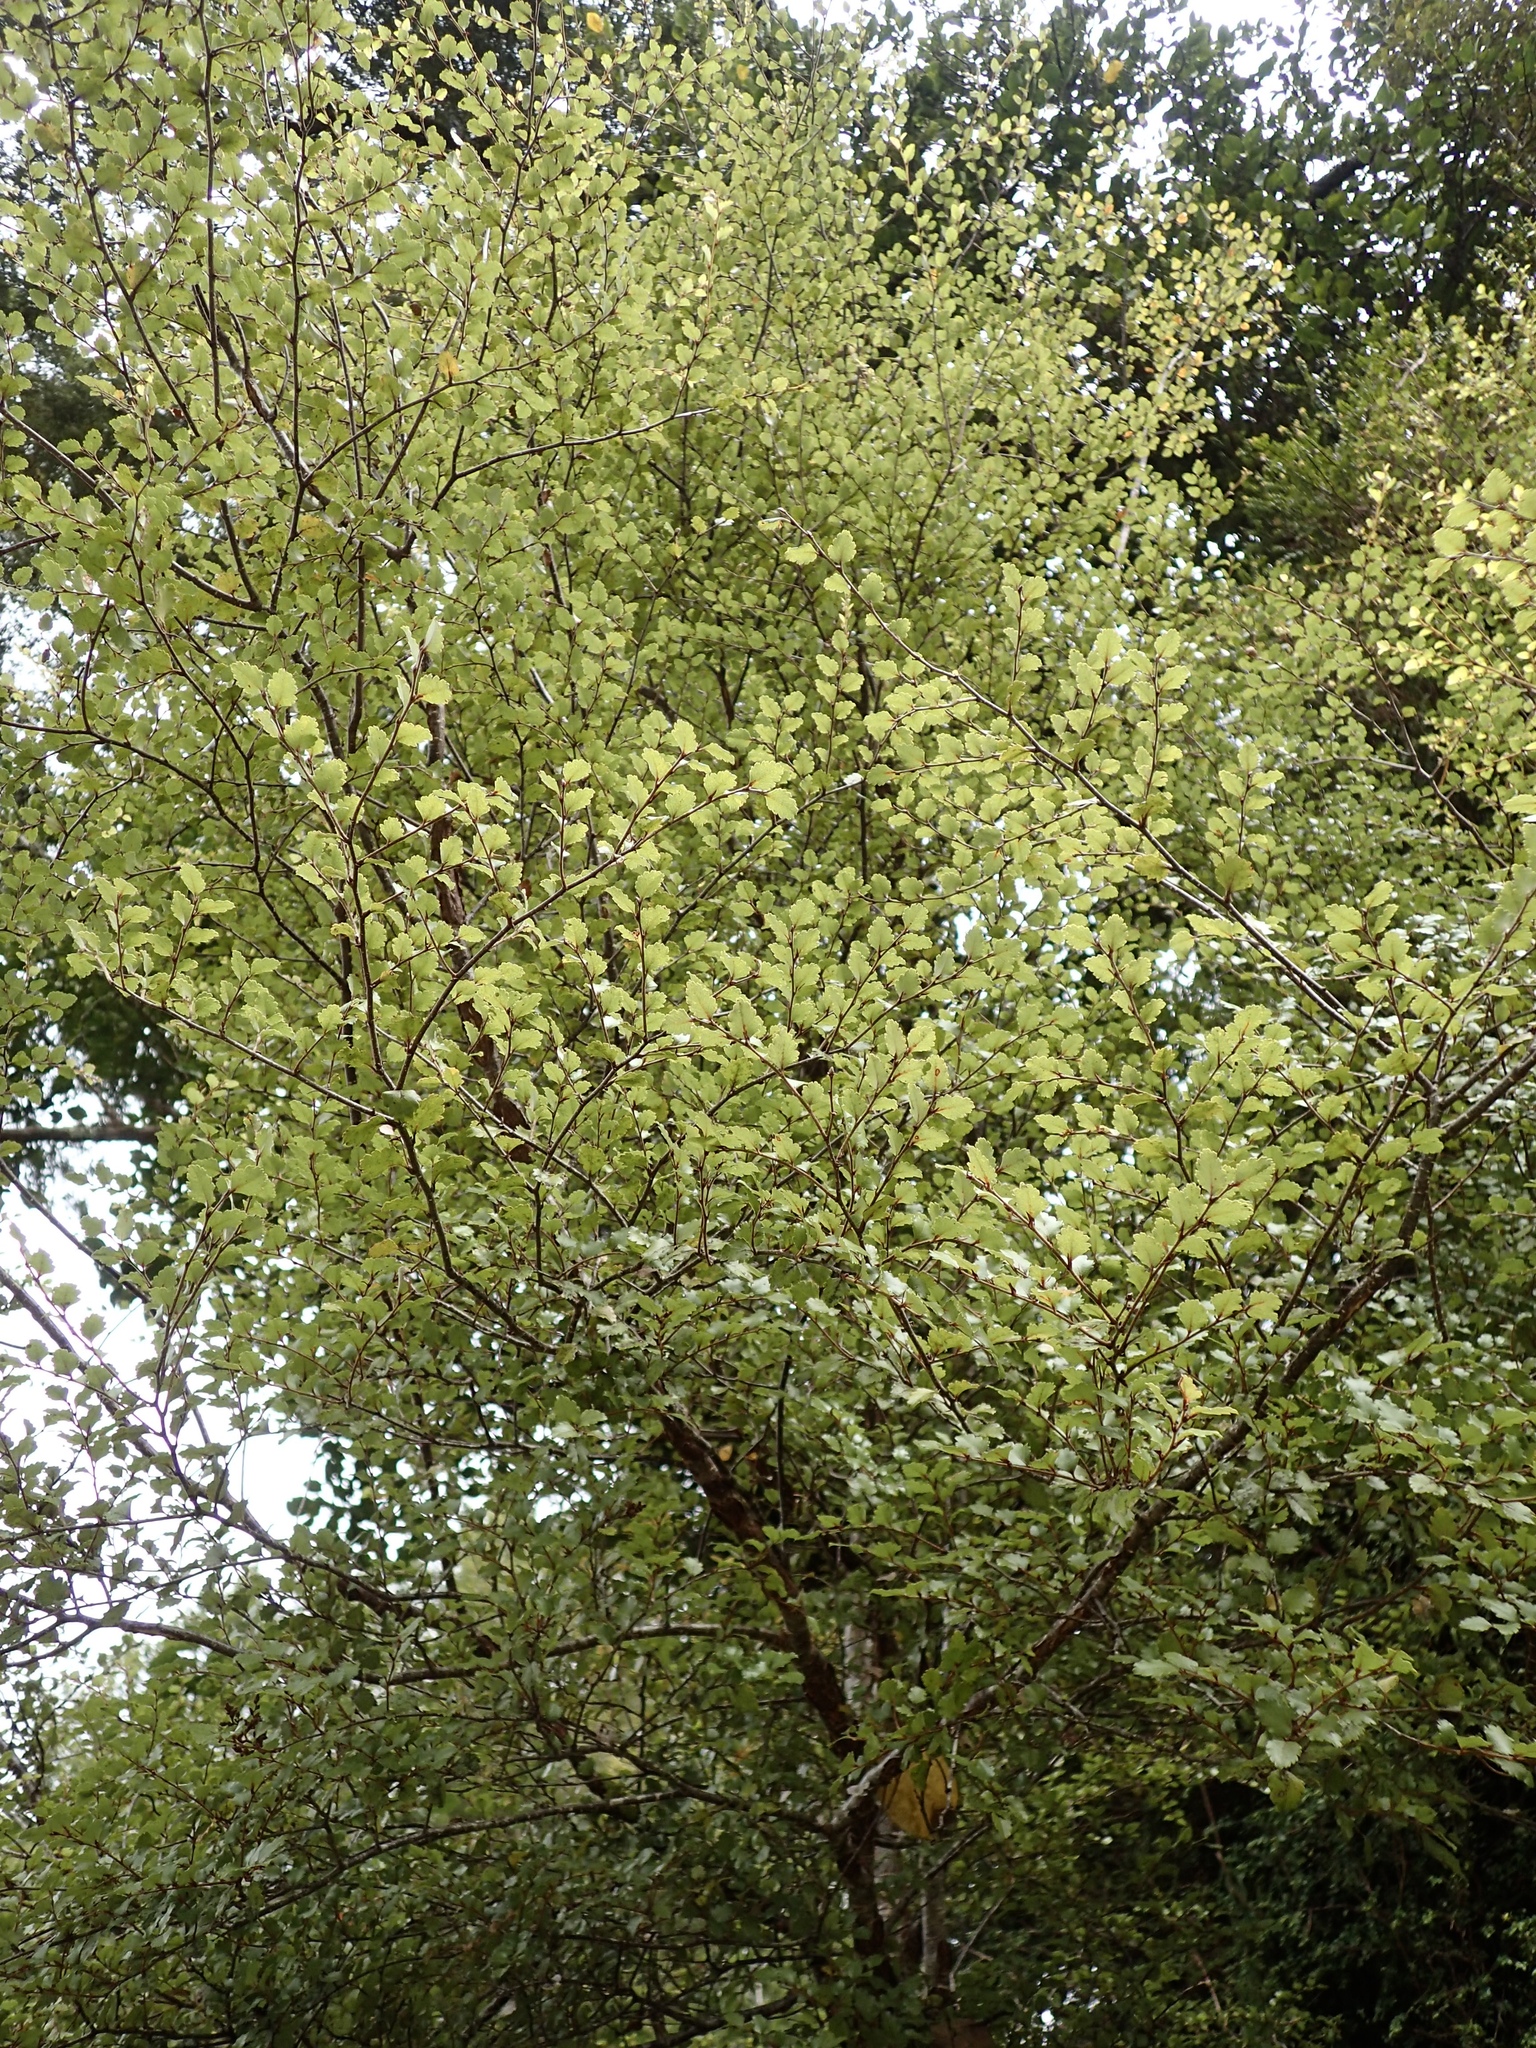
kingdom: Plantae
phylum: Tracheophyta
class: Magnoliopsida
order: Fagales
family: Nothofagaceae
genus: Nothofagus
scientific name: Nothofagus menziesii
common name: Silver beech
